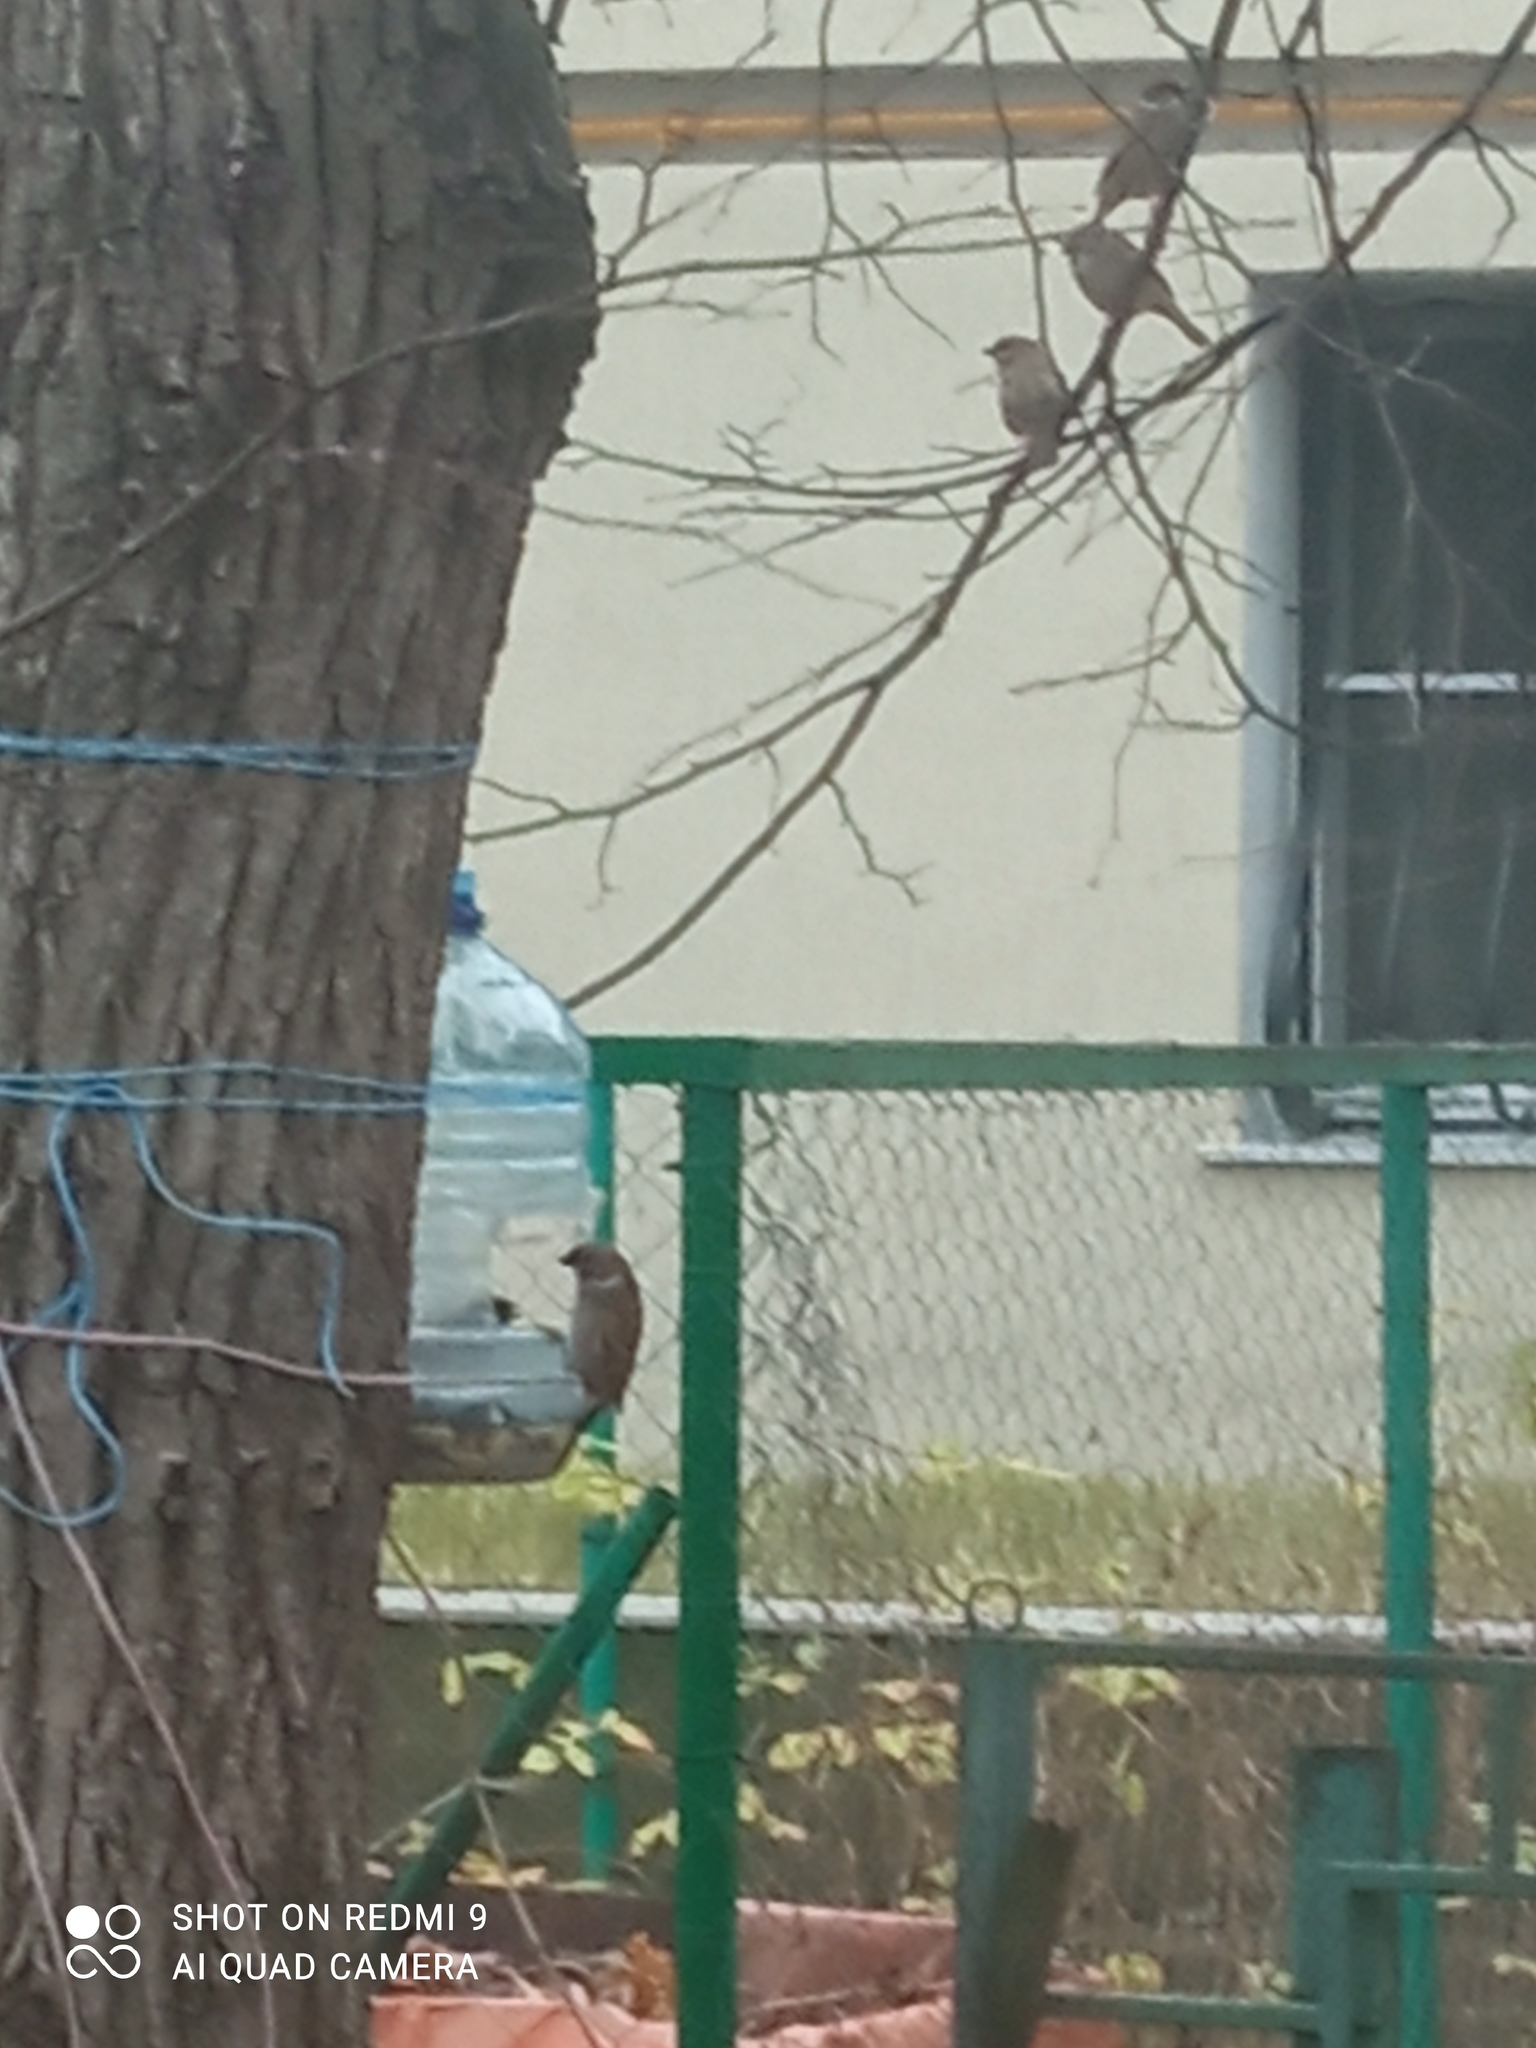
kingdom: Animalia
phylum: Chordata
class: Aves
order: Passeriformes
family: Passeridae
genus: Passer
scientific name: Passer montanus
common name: Eurasian tree sparrow
